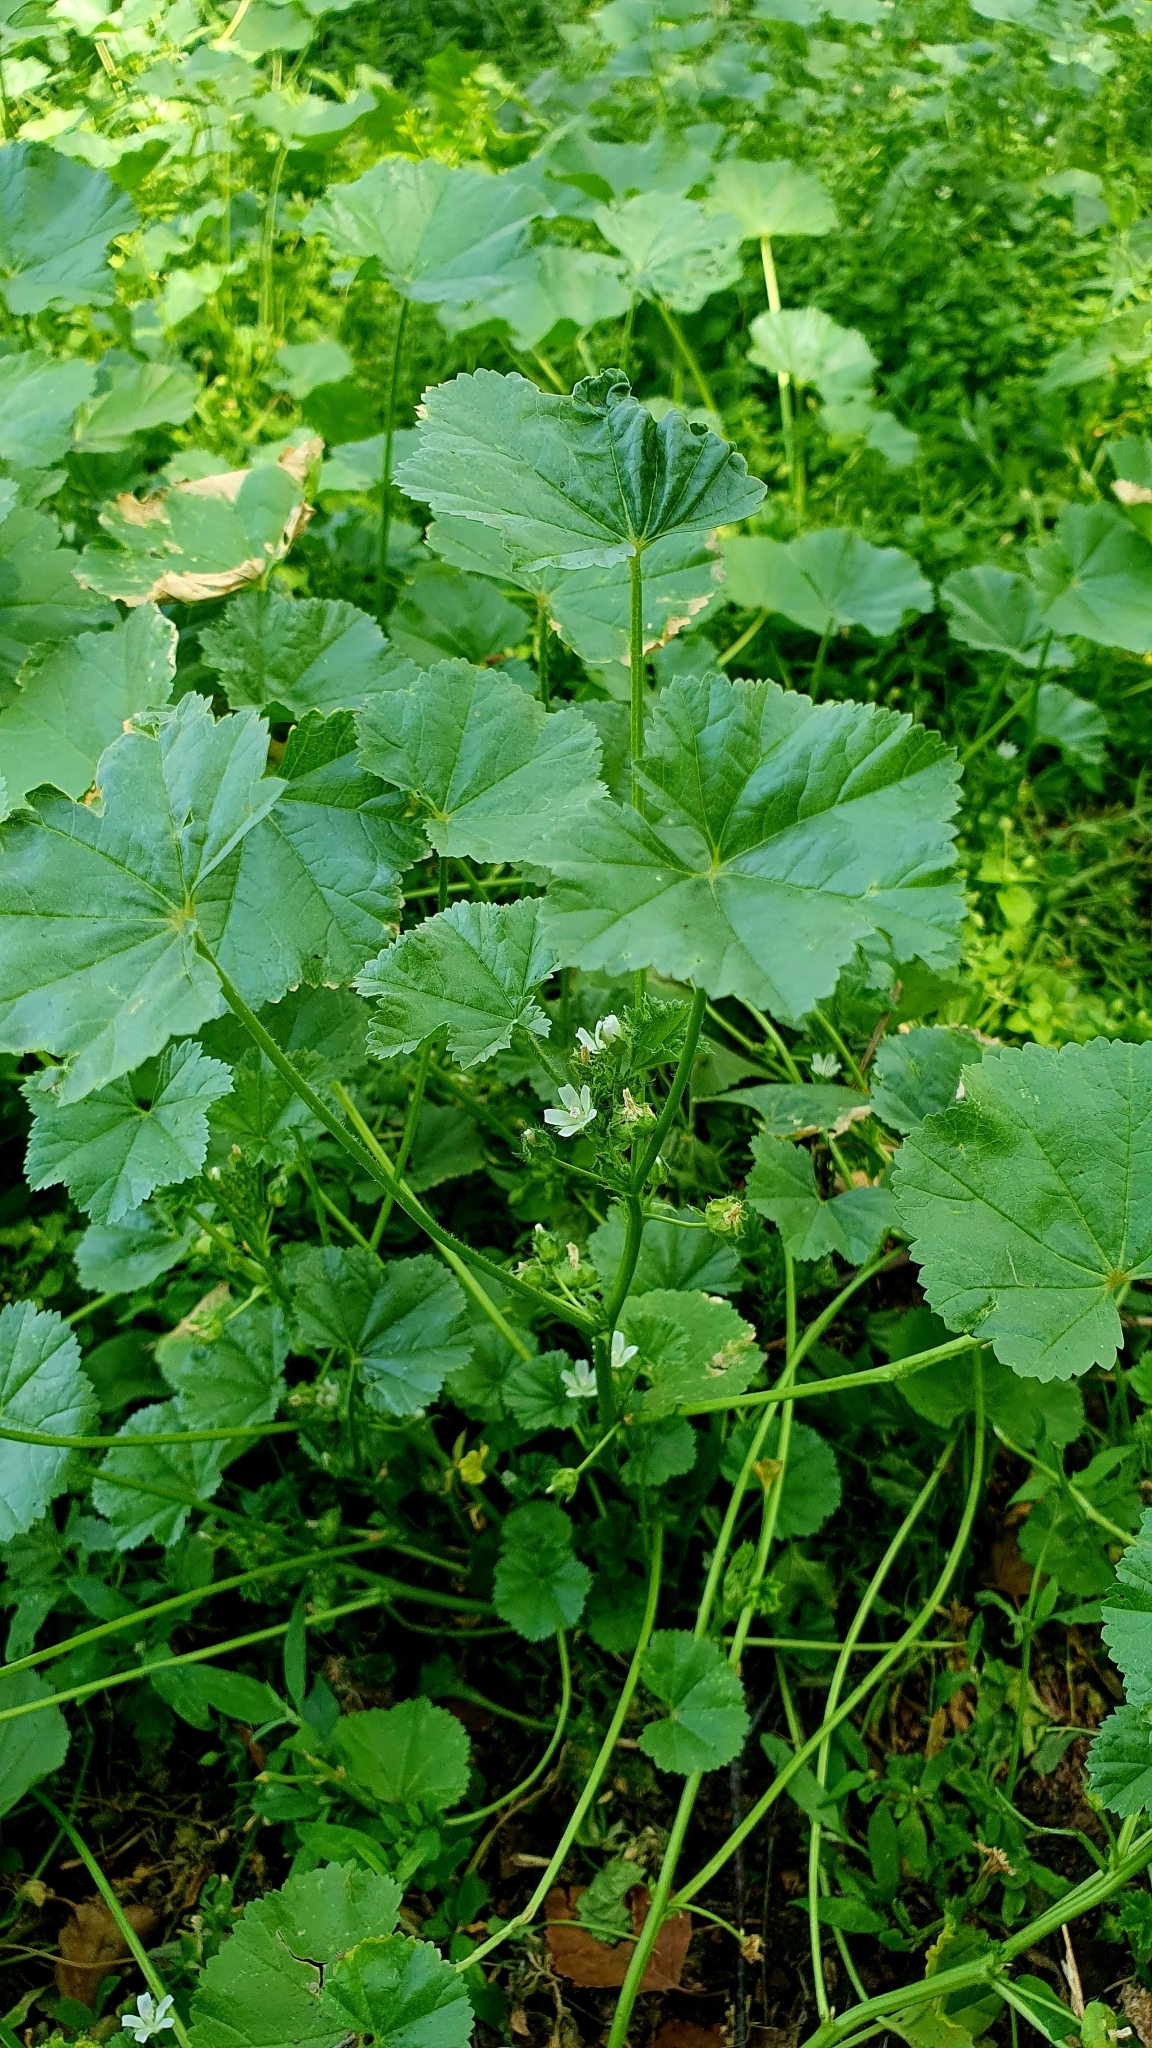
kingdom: Plantae
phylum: Tracheophyta
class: Magnoliopsida
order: Malvales
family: Malvaceae
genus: Malva
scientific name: Malva pusilla
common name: Small mallow
